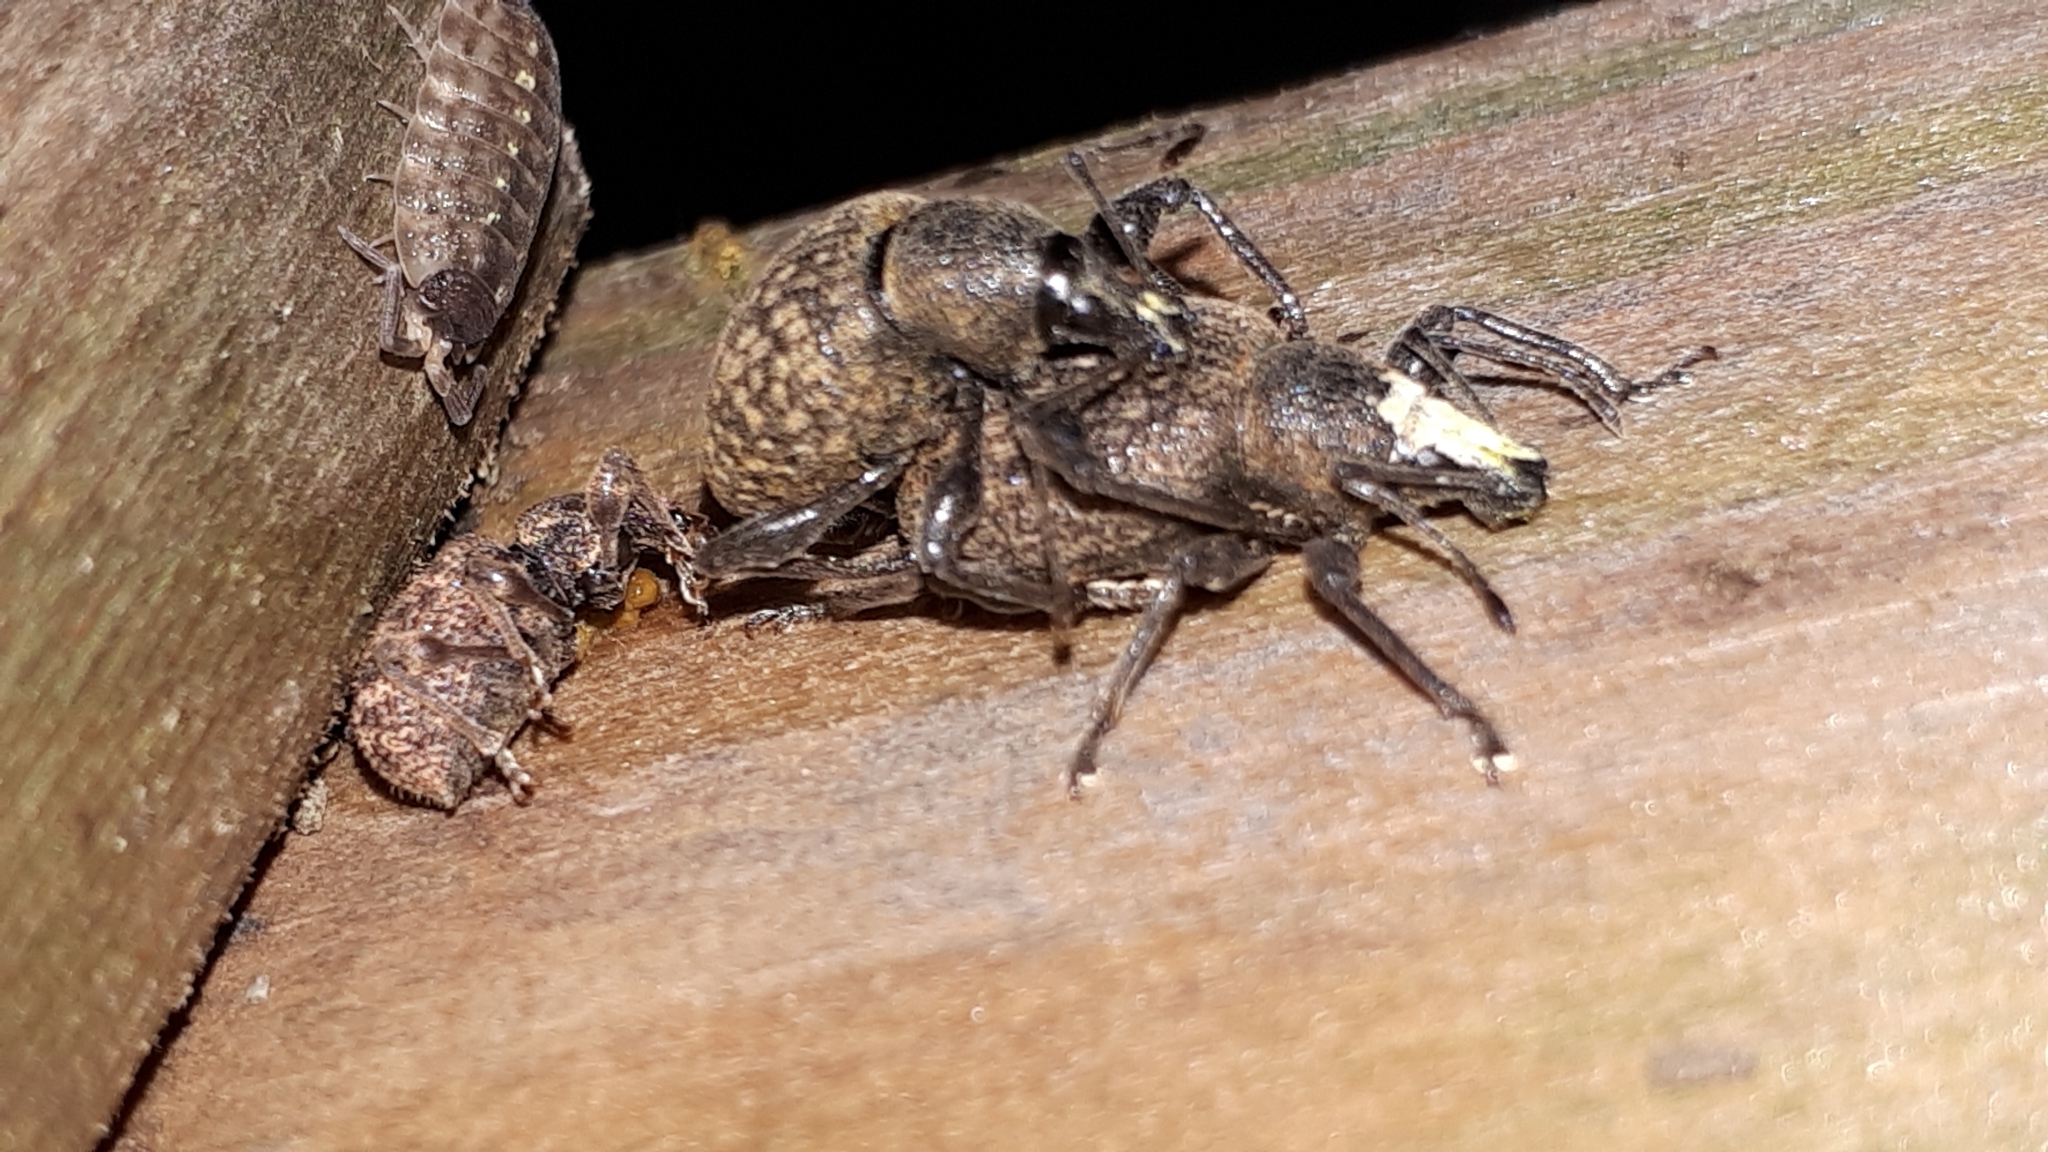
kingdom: Animalia
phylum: Arthropoda
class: Insecta
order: Coleoptera
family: Curculionidae
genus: Otiorhynchus
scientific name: Otiorhynchus armadillo
